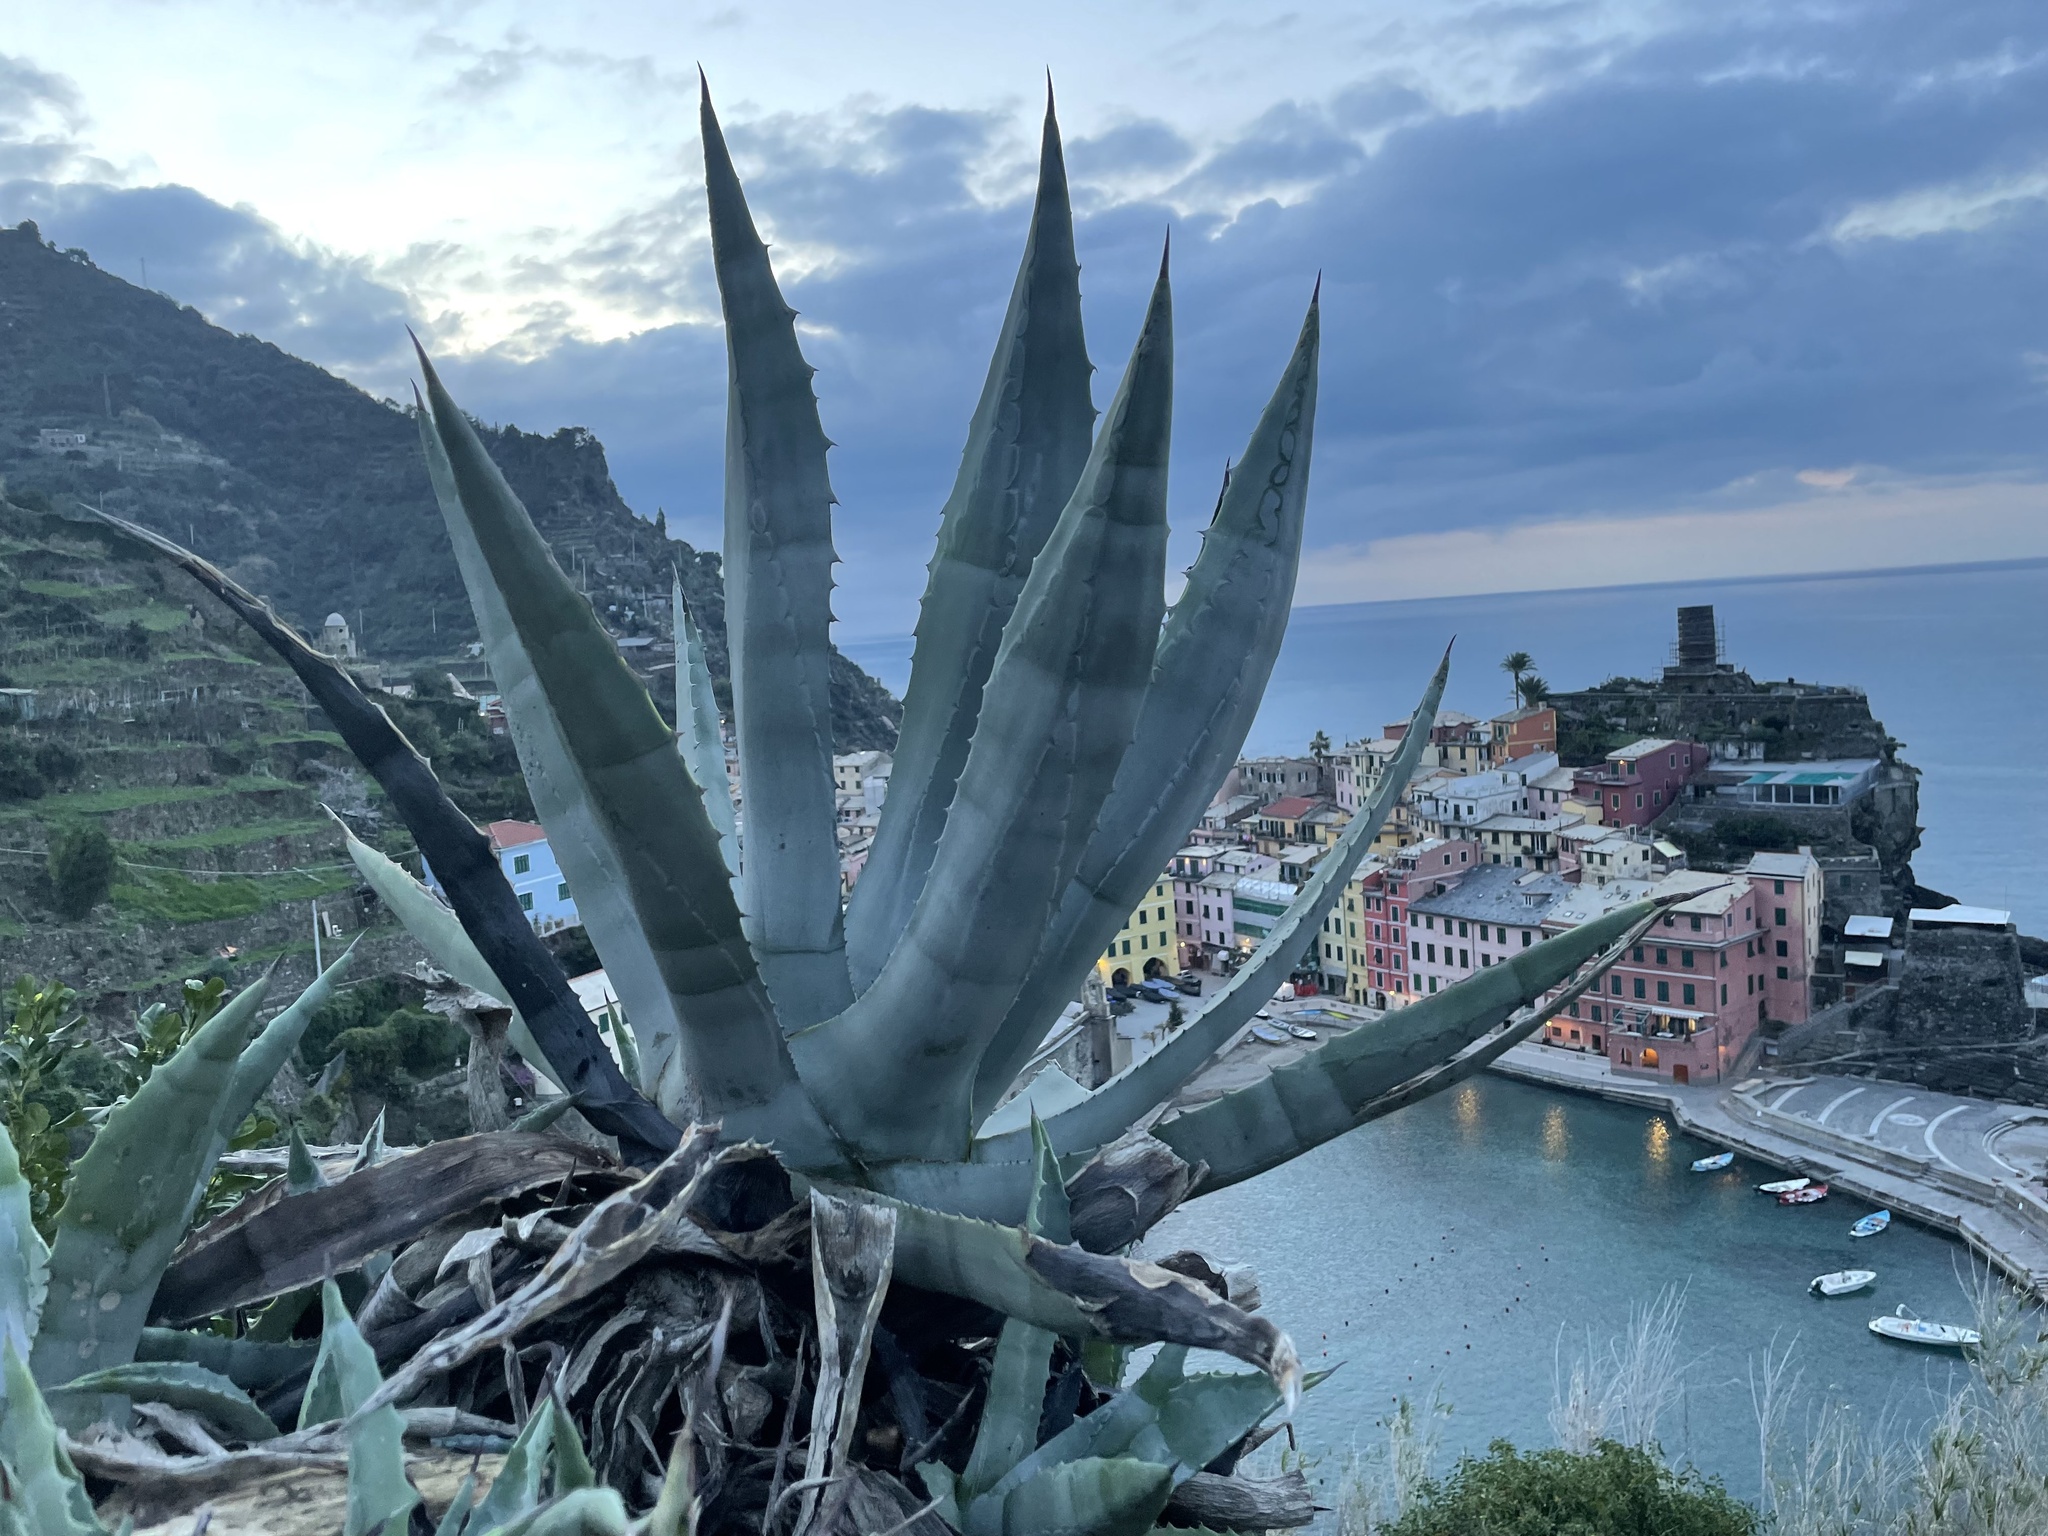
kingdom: Plantae
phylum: Tracheophyta
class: Liliopsida
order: Asparagales
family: Asparagaceae
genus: Agave
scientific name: Agave americana
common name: Centuryplant
